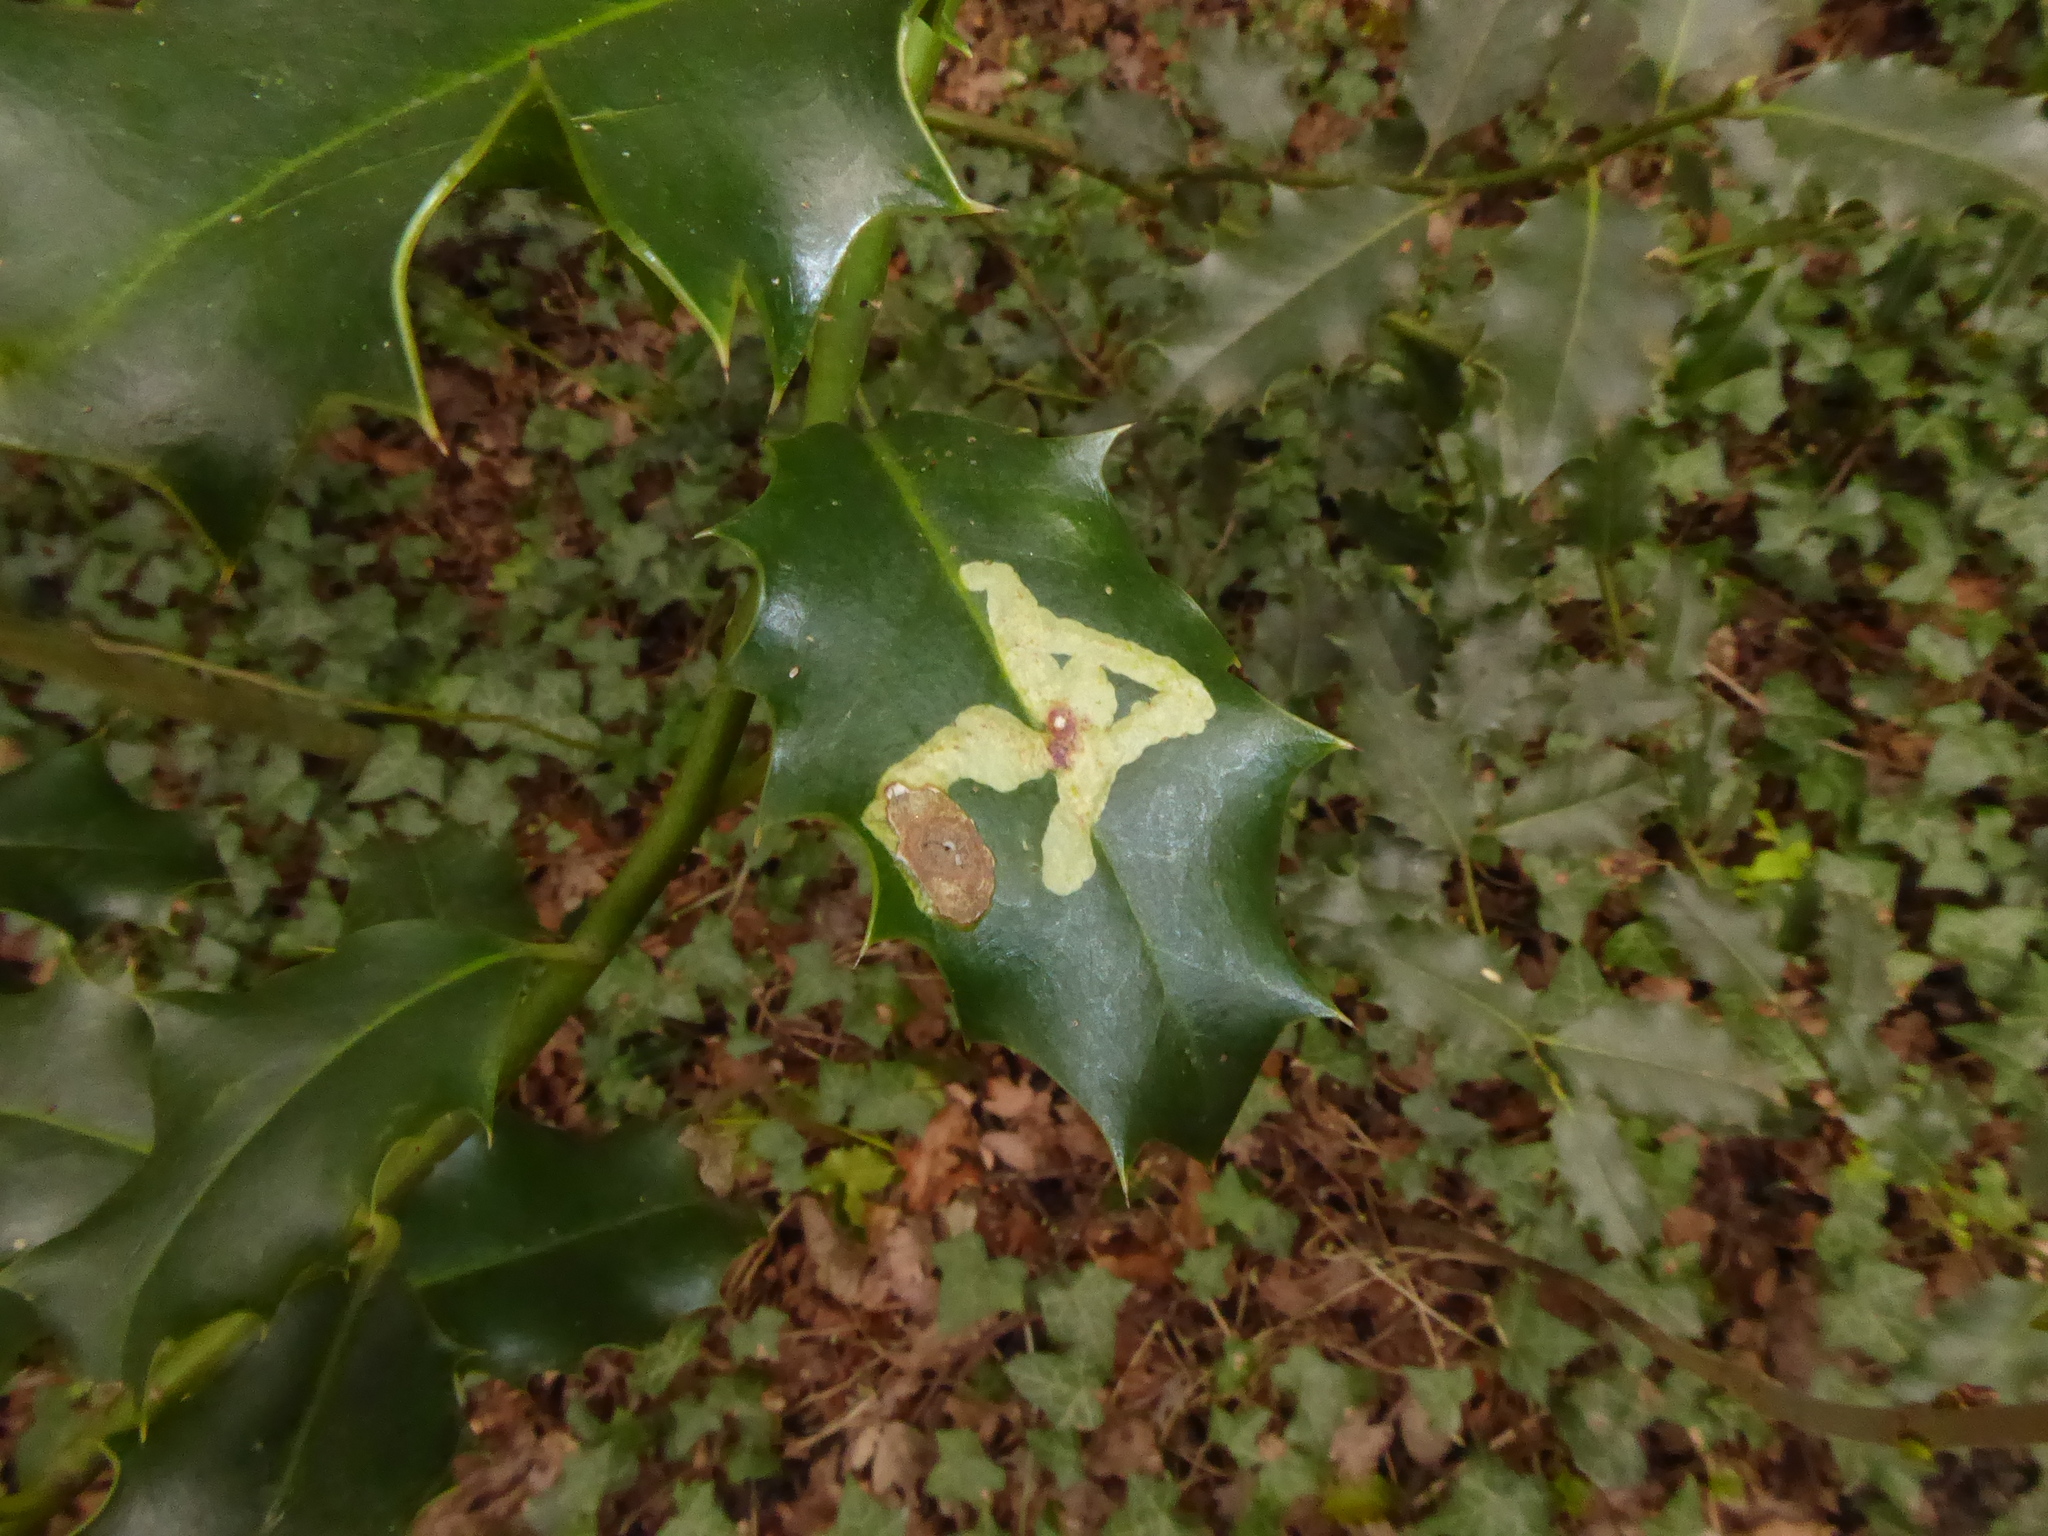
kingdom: Animalia
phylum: Arthropoda
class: Insecta
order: Diptera
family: Agromyzidae
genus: Phytomyza
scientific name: Phytomyza ilicis
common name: Holly leafminer
